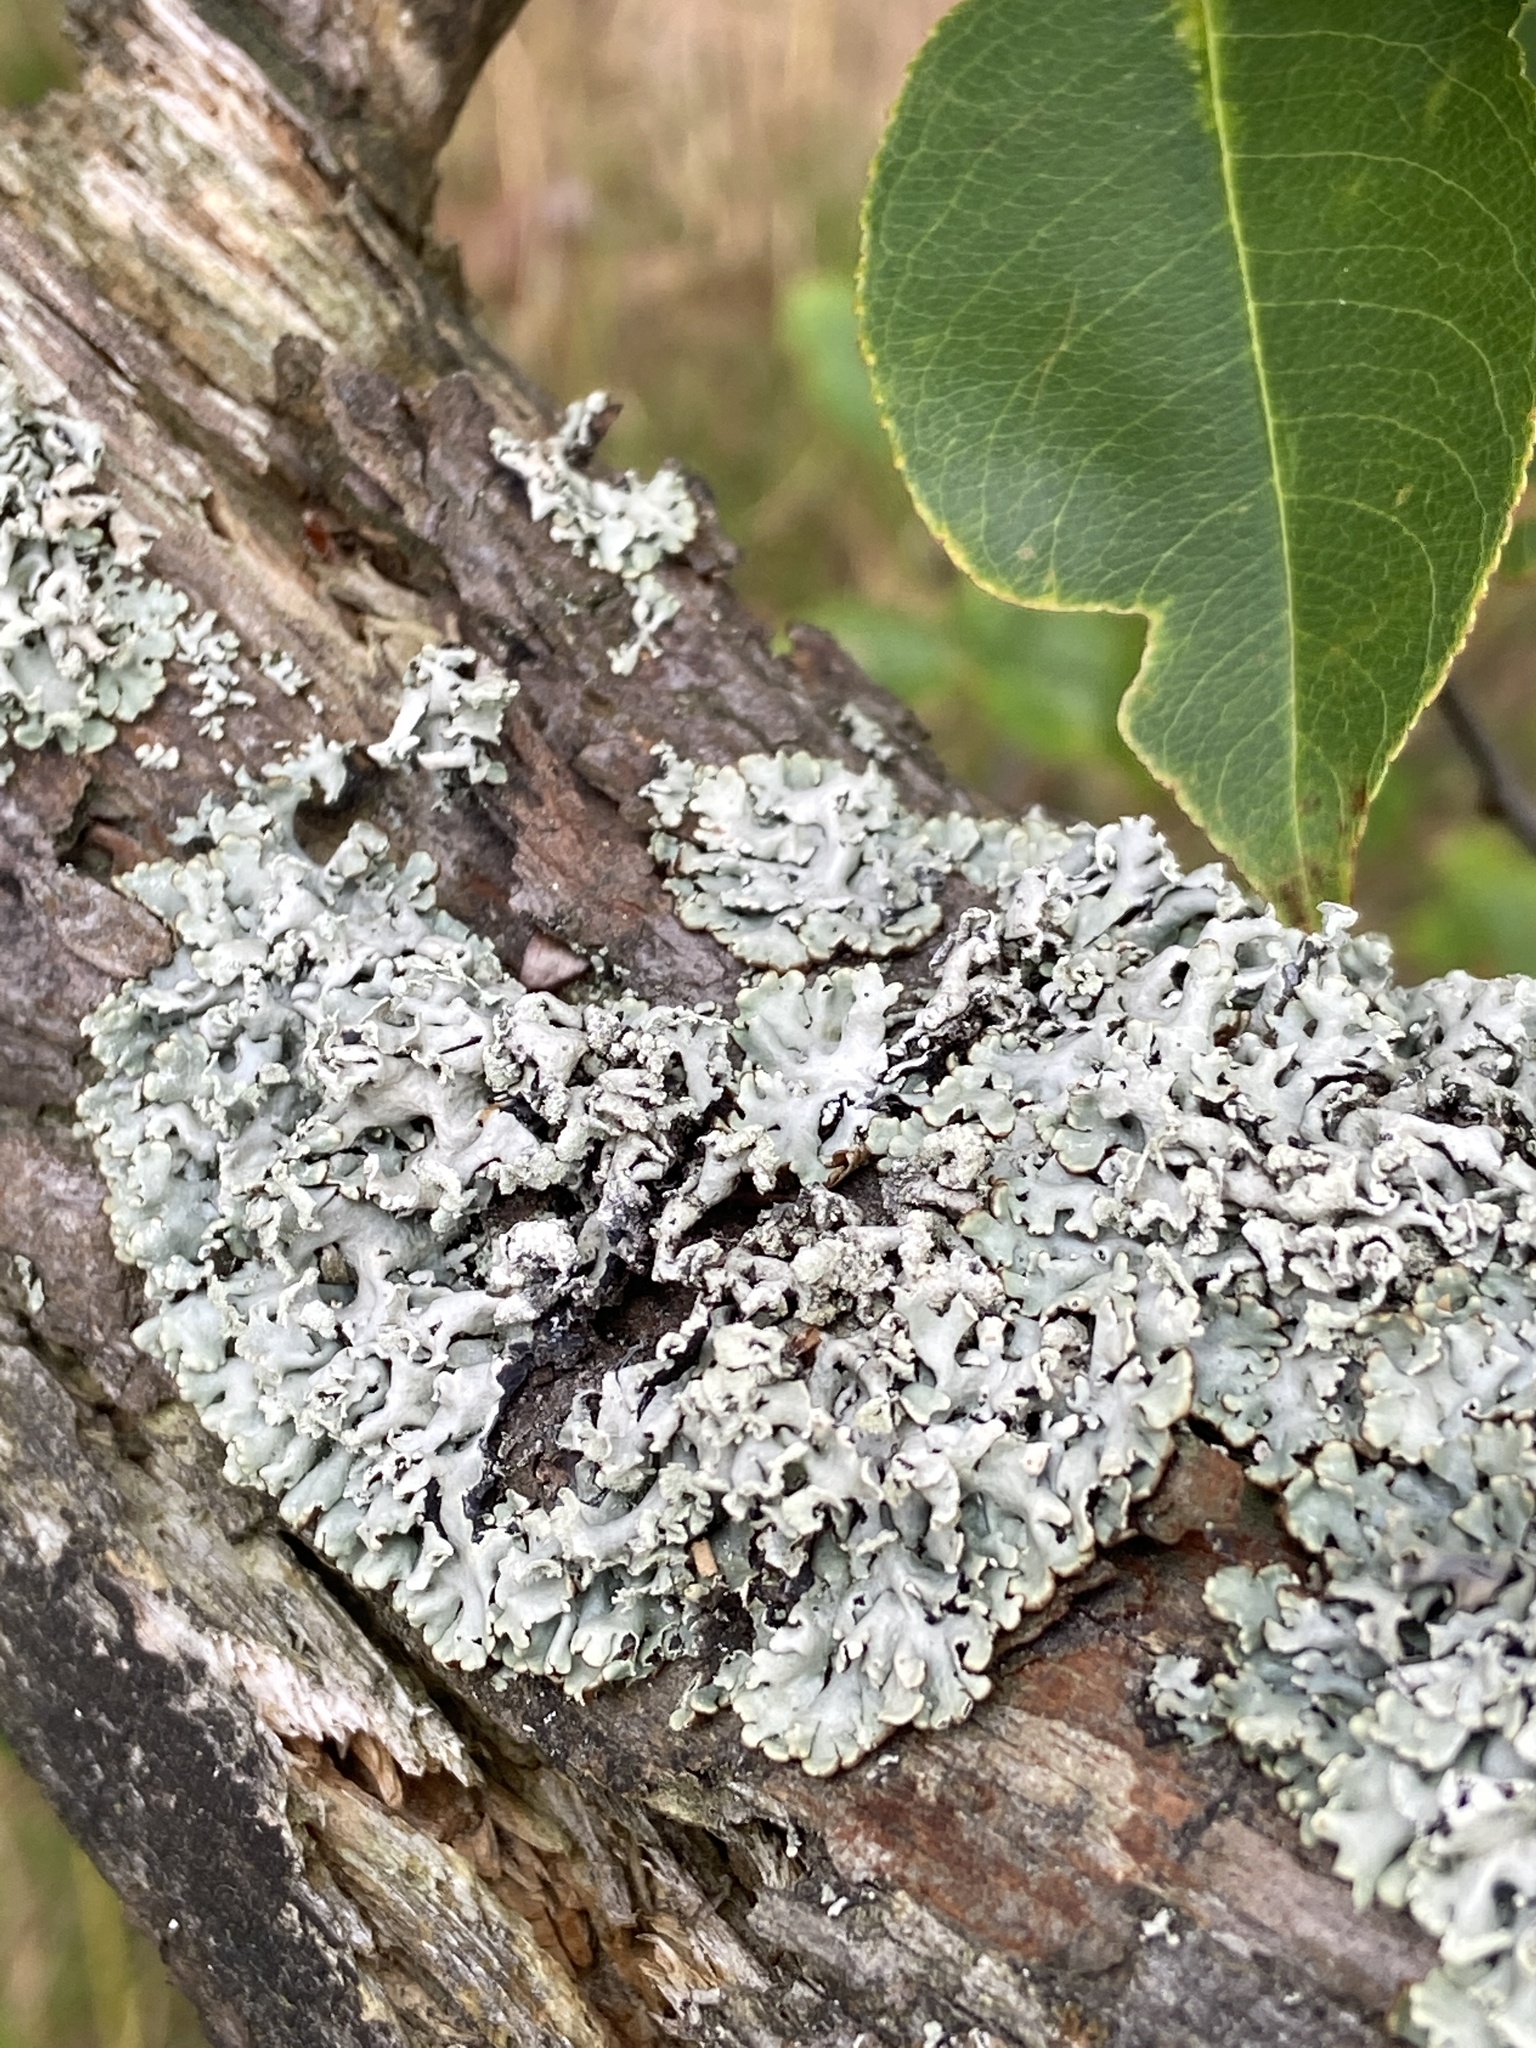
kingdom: Fungi
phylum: Ascomycota
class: Lecanoromycetes
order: Lecanorales
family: Parmeliaceae
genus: Hypogymnia
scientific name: Hypogymnia physodes
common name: Dark crottle
